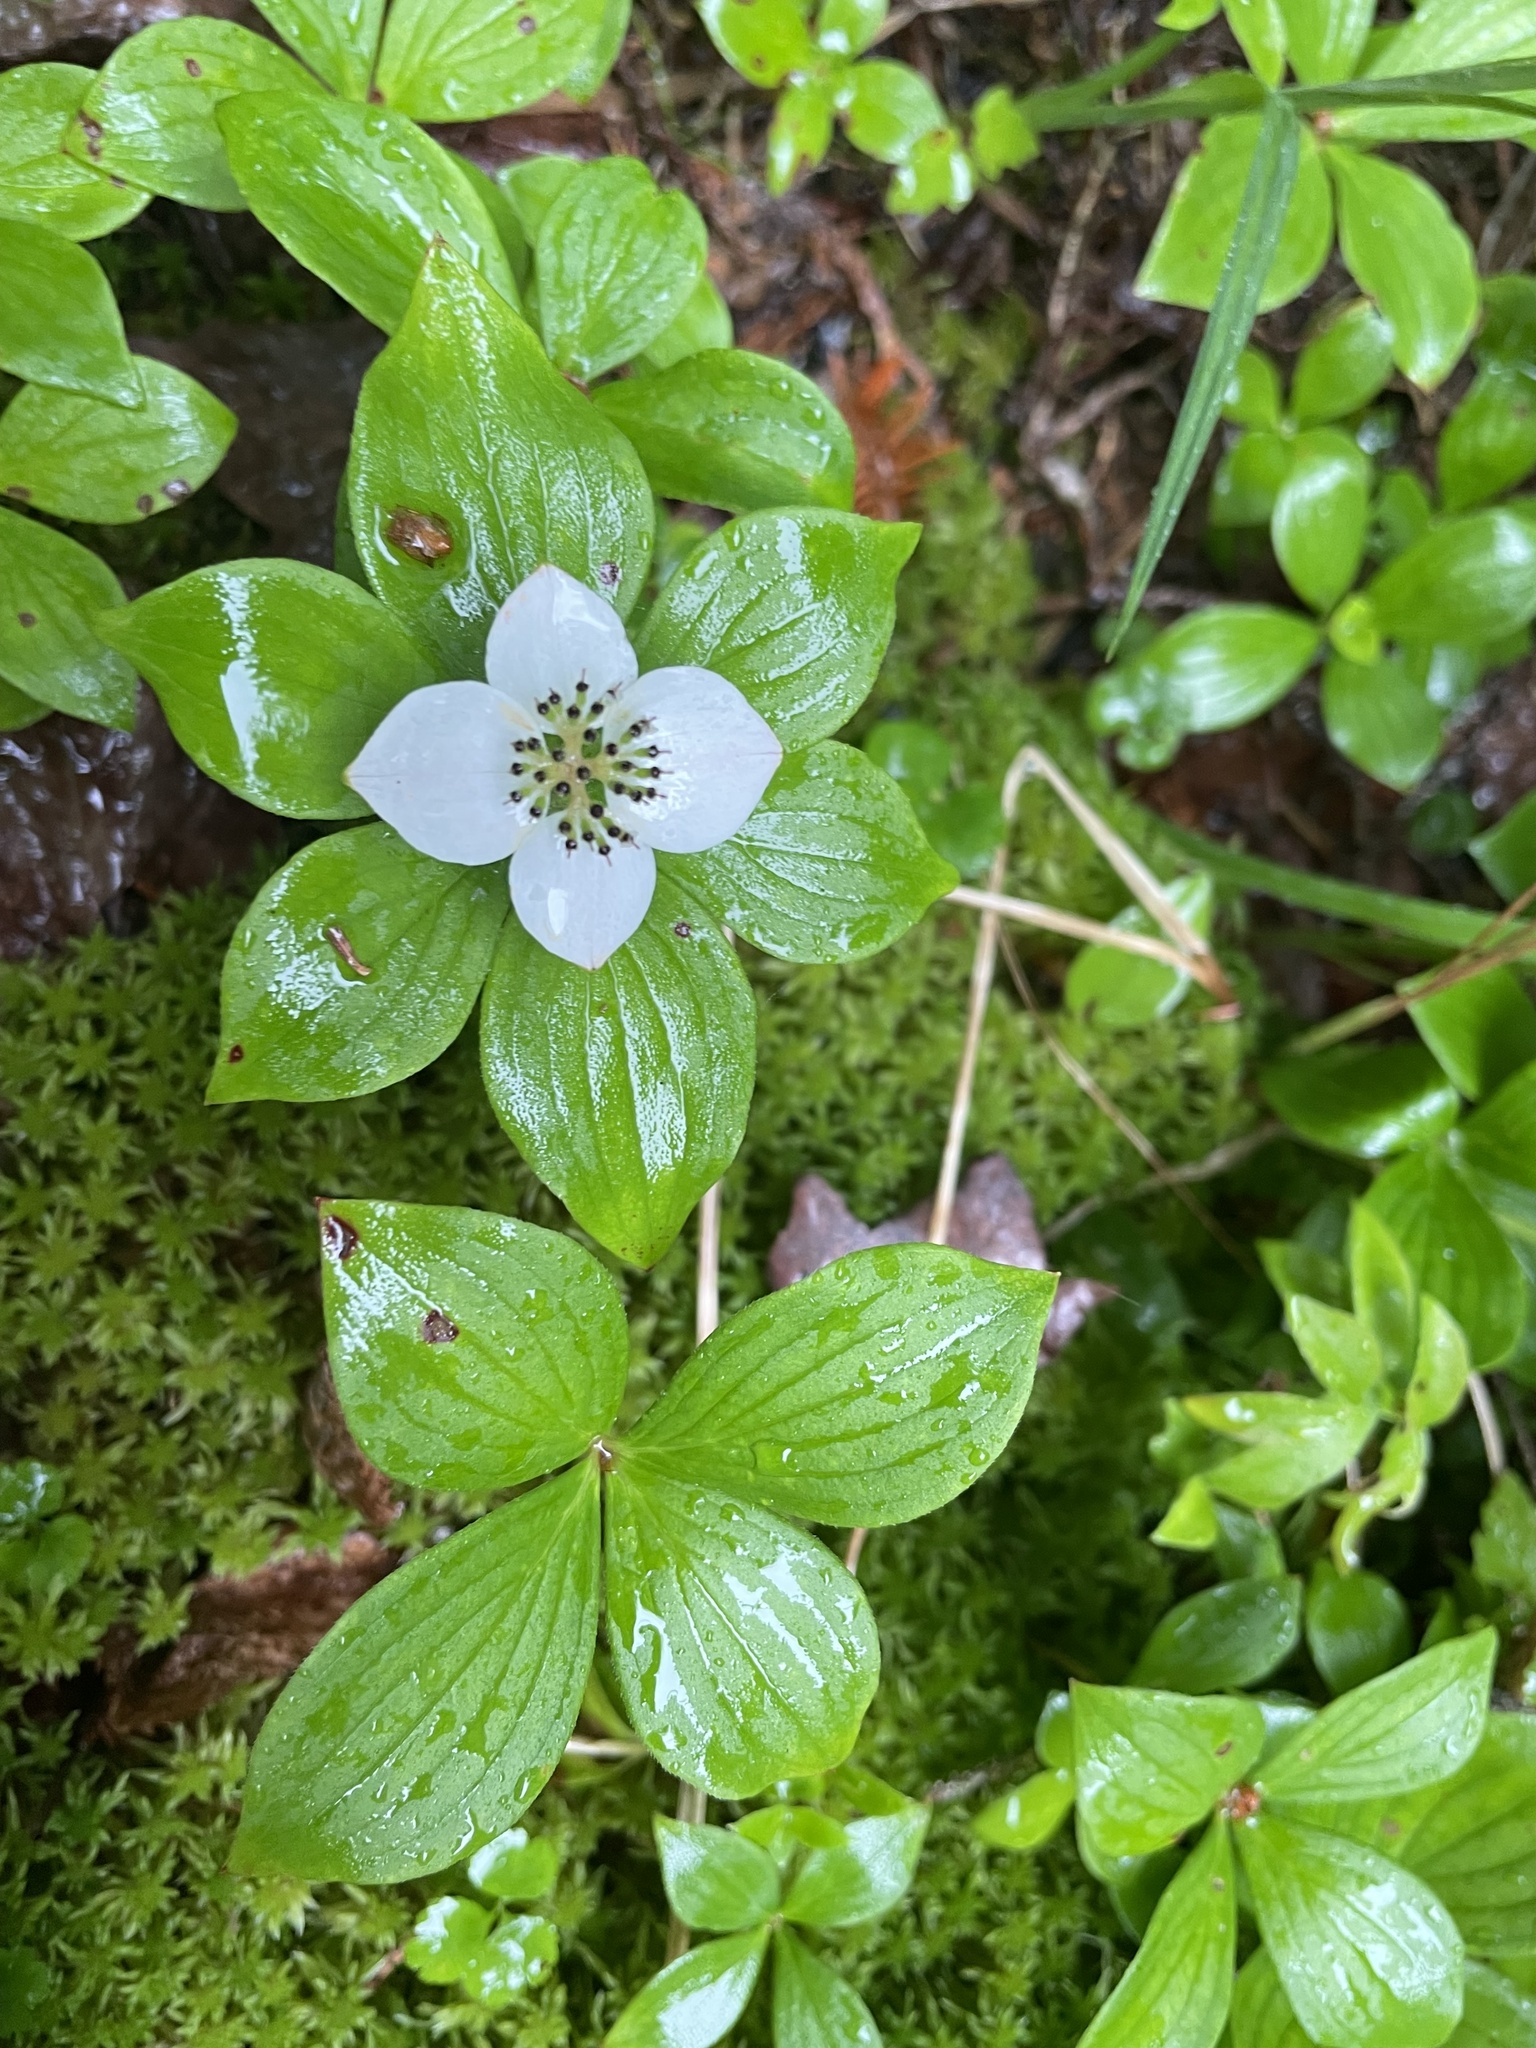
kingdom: Plantae
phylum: Tracheophyta
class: Magnoliopsida
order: Cornales
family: Cornaceae
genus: Cornus
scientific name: Cornus canadensis
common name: Creeping dogwood
